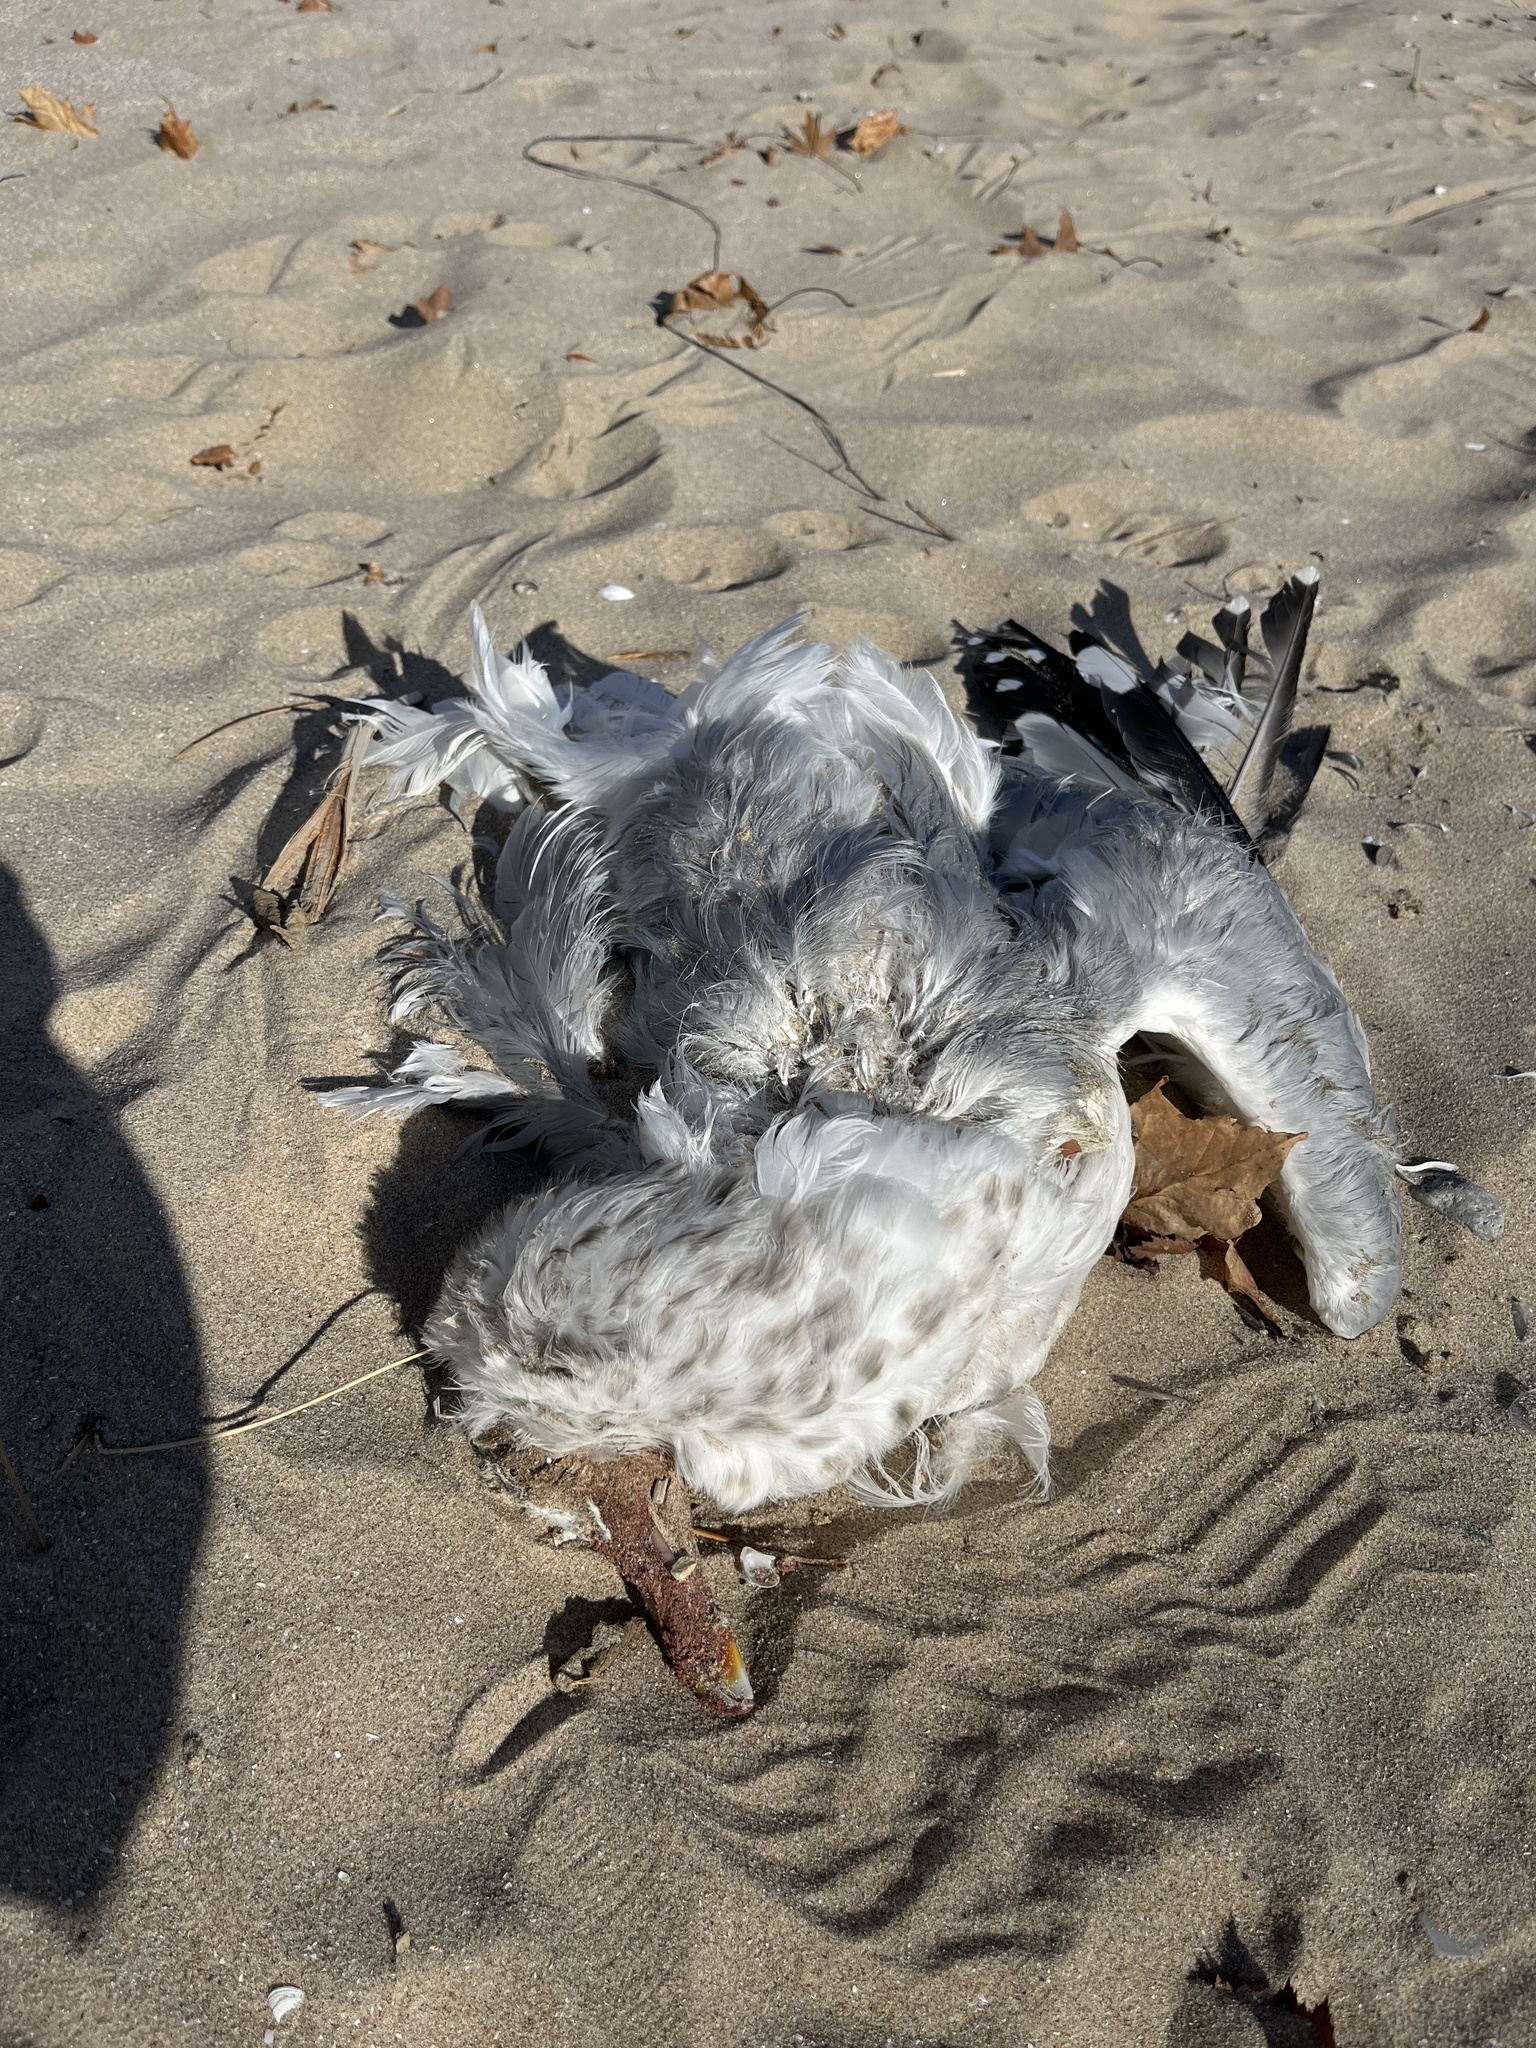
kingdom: Animalia
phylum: Chordata
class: Aves
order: Charadriiformes
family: Laridae
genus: Larus
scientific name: Larus argentatus
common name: Herring gull
